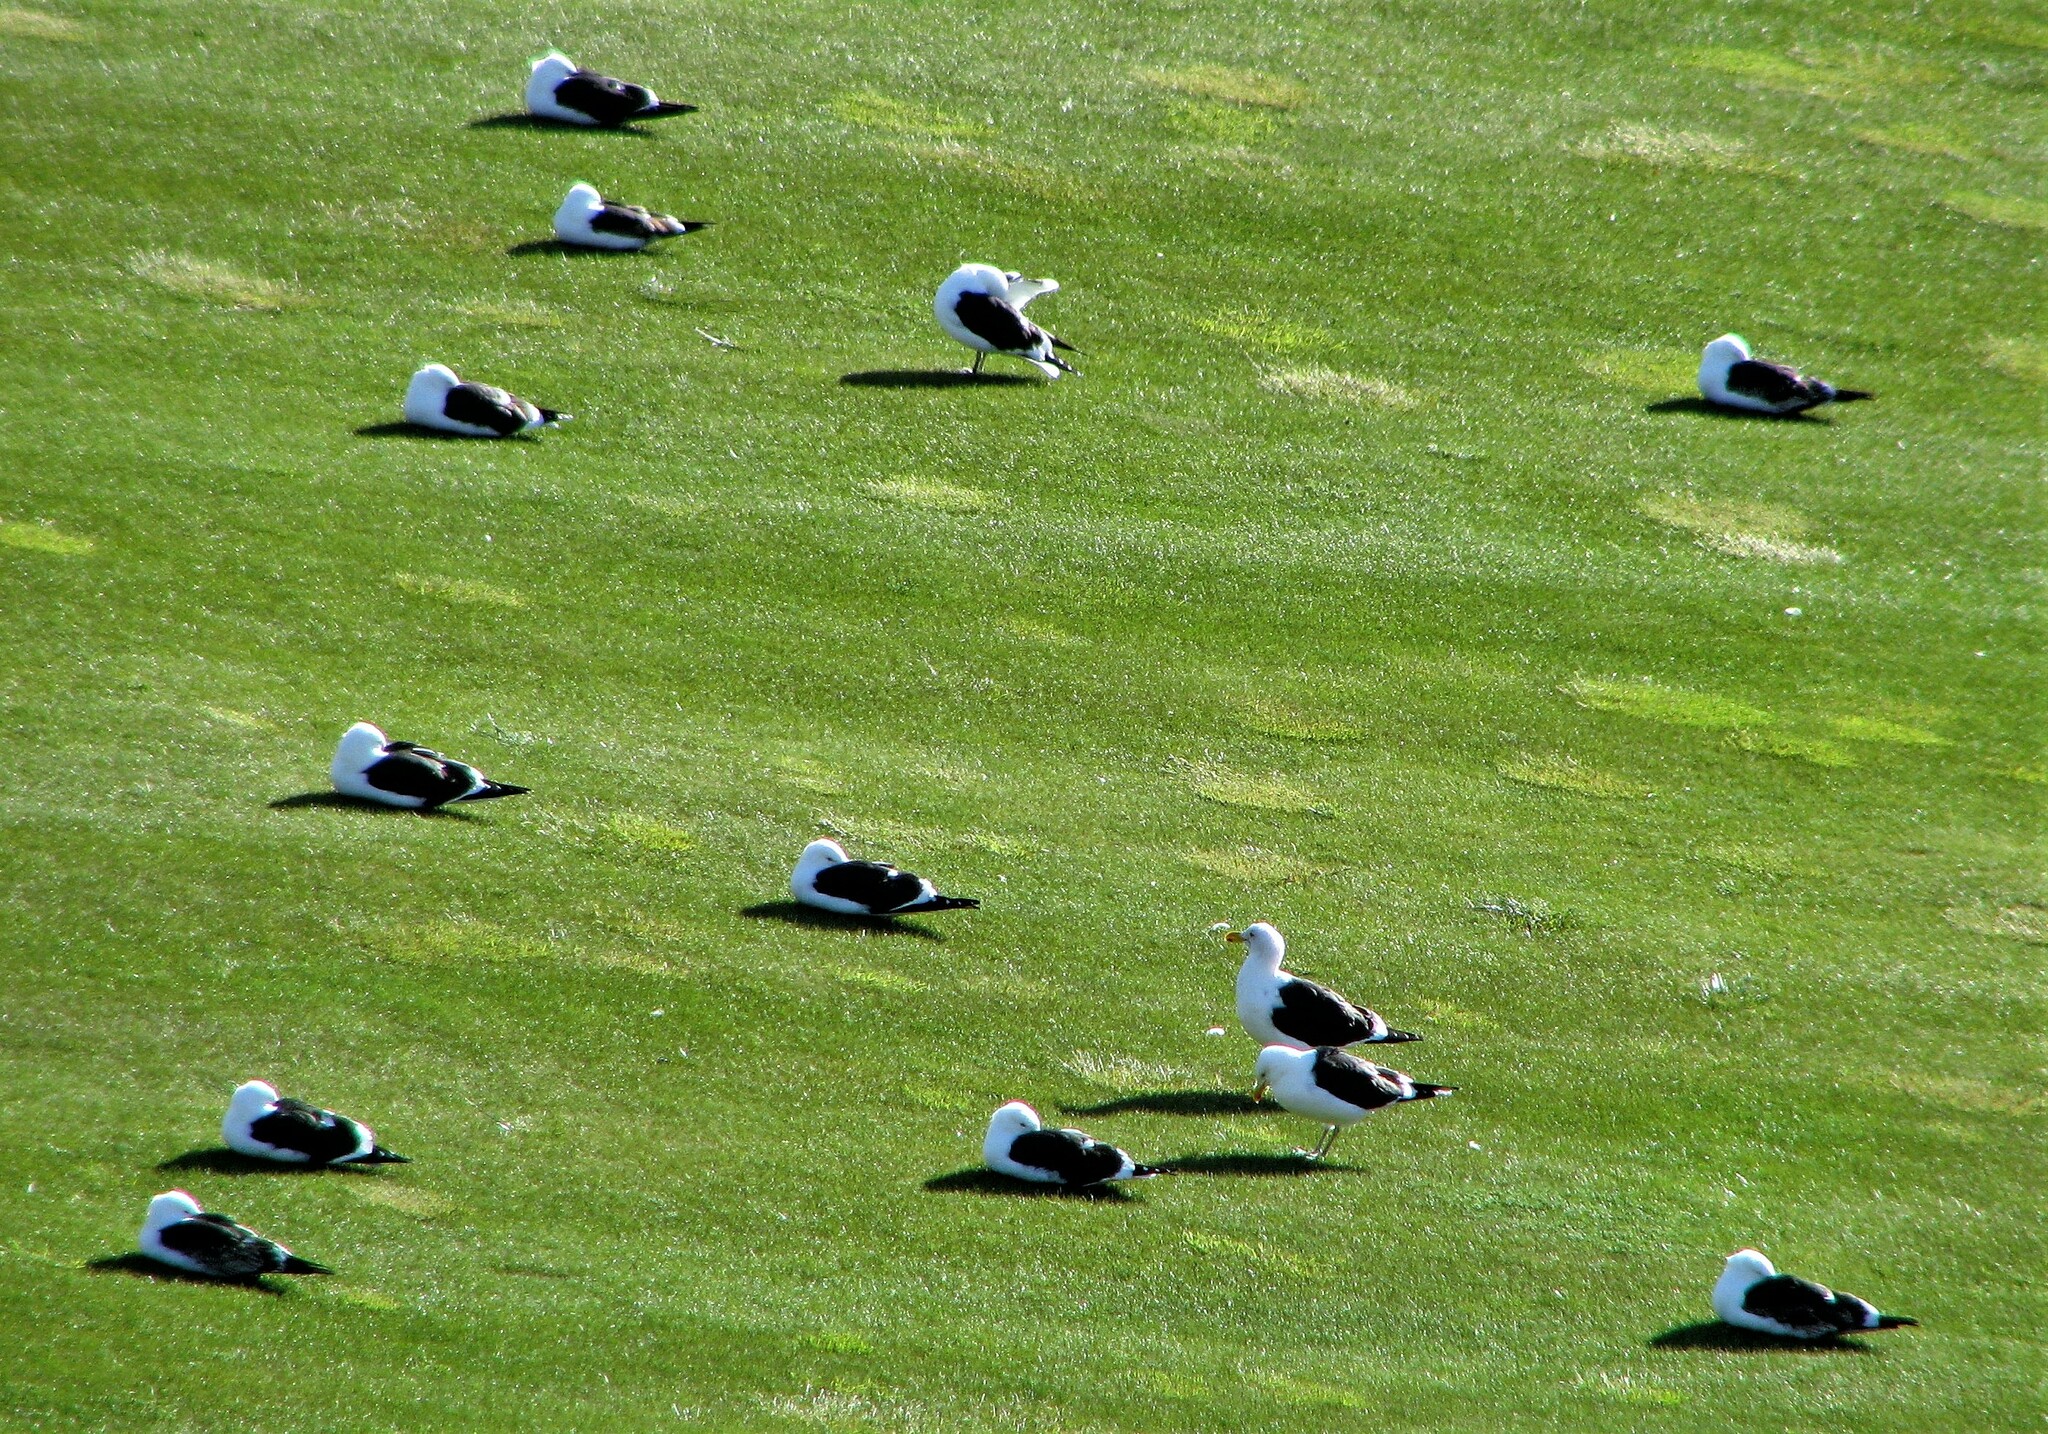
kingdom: Animalia
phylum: Chordata
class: Aves
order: Charadriiformes
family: Laridae
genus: Larus
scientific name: Larus dominicanus
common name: Kelp gull
